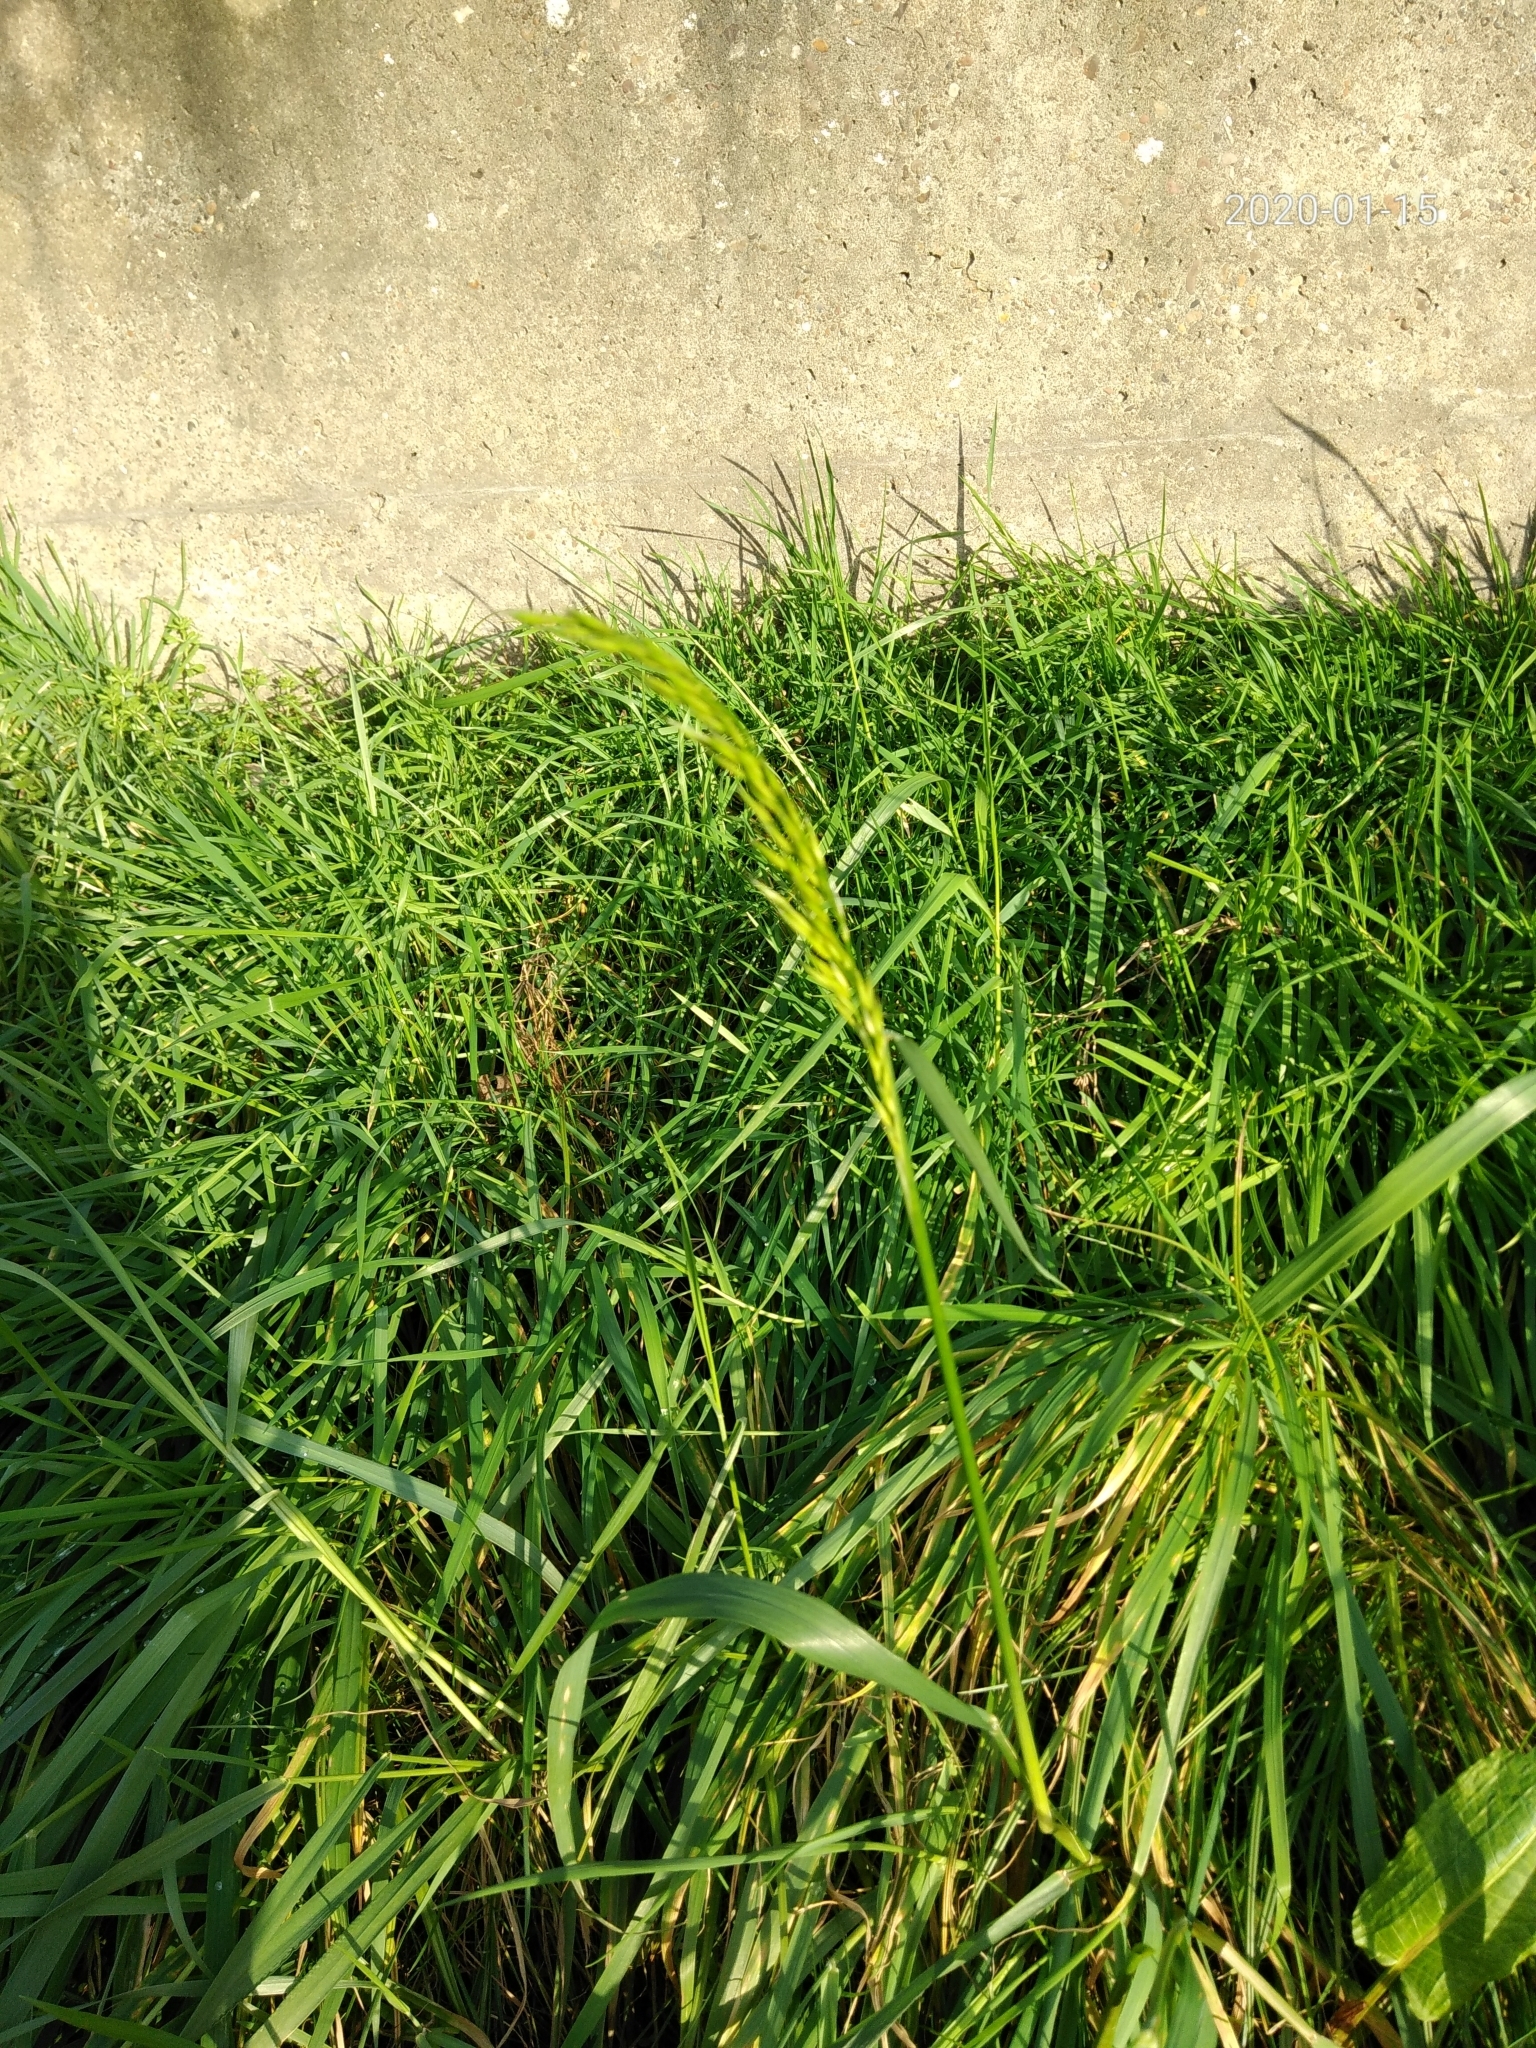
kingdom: Plantae
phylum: Tracheophyta
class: Liliopsida
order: Poales
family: Poaceae
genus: Arrhenatherum
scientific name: Arrhenatherum elatius
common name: Tall oatgrass
